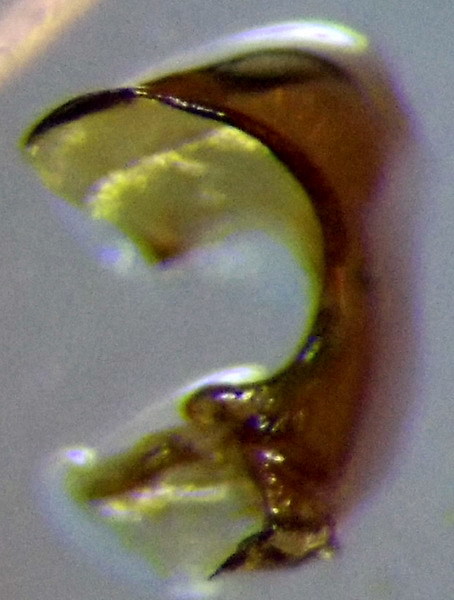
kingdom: Animalia
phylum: Arthropoda
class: Insecta
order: Hemiptera
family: Pentatomidae
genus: Carpocoris
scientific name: Carpocoris purpureipennis
